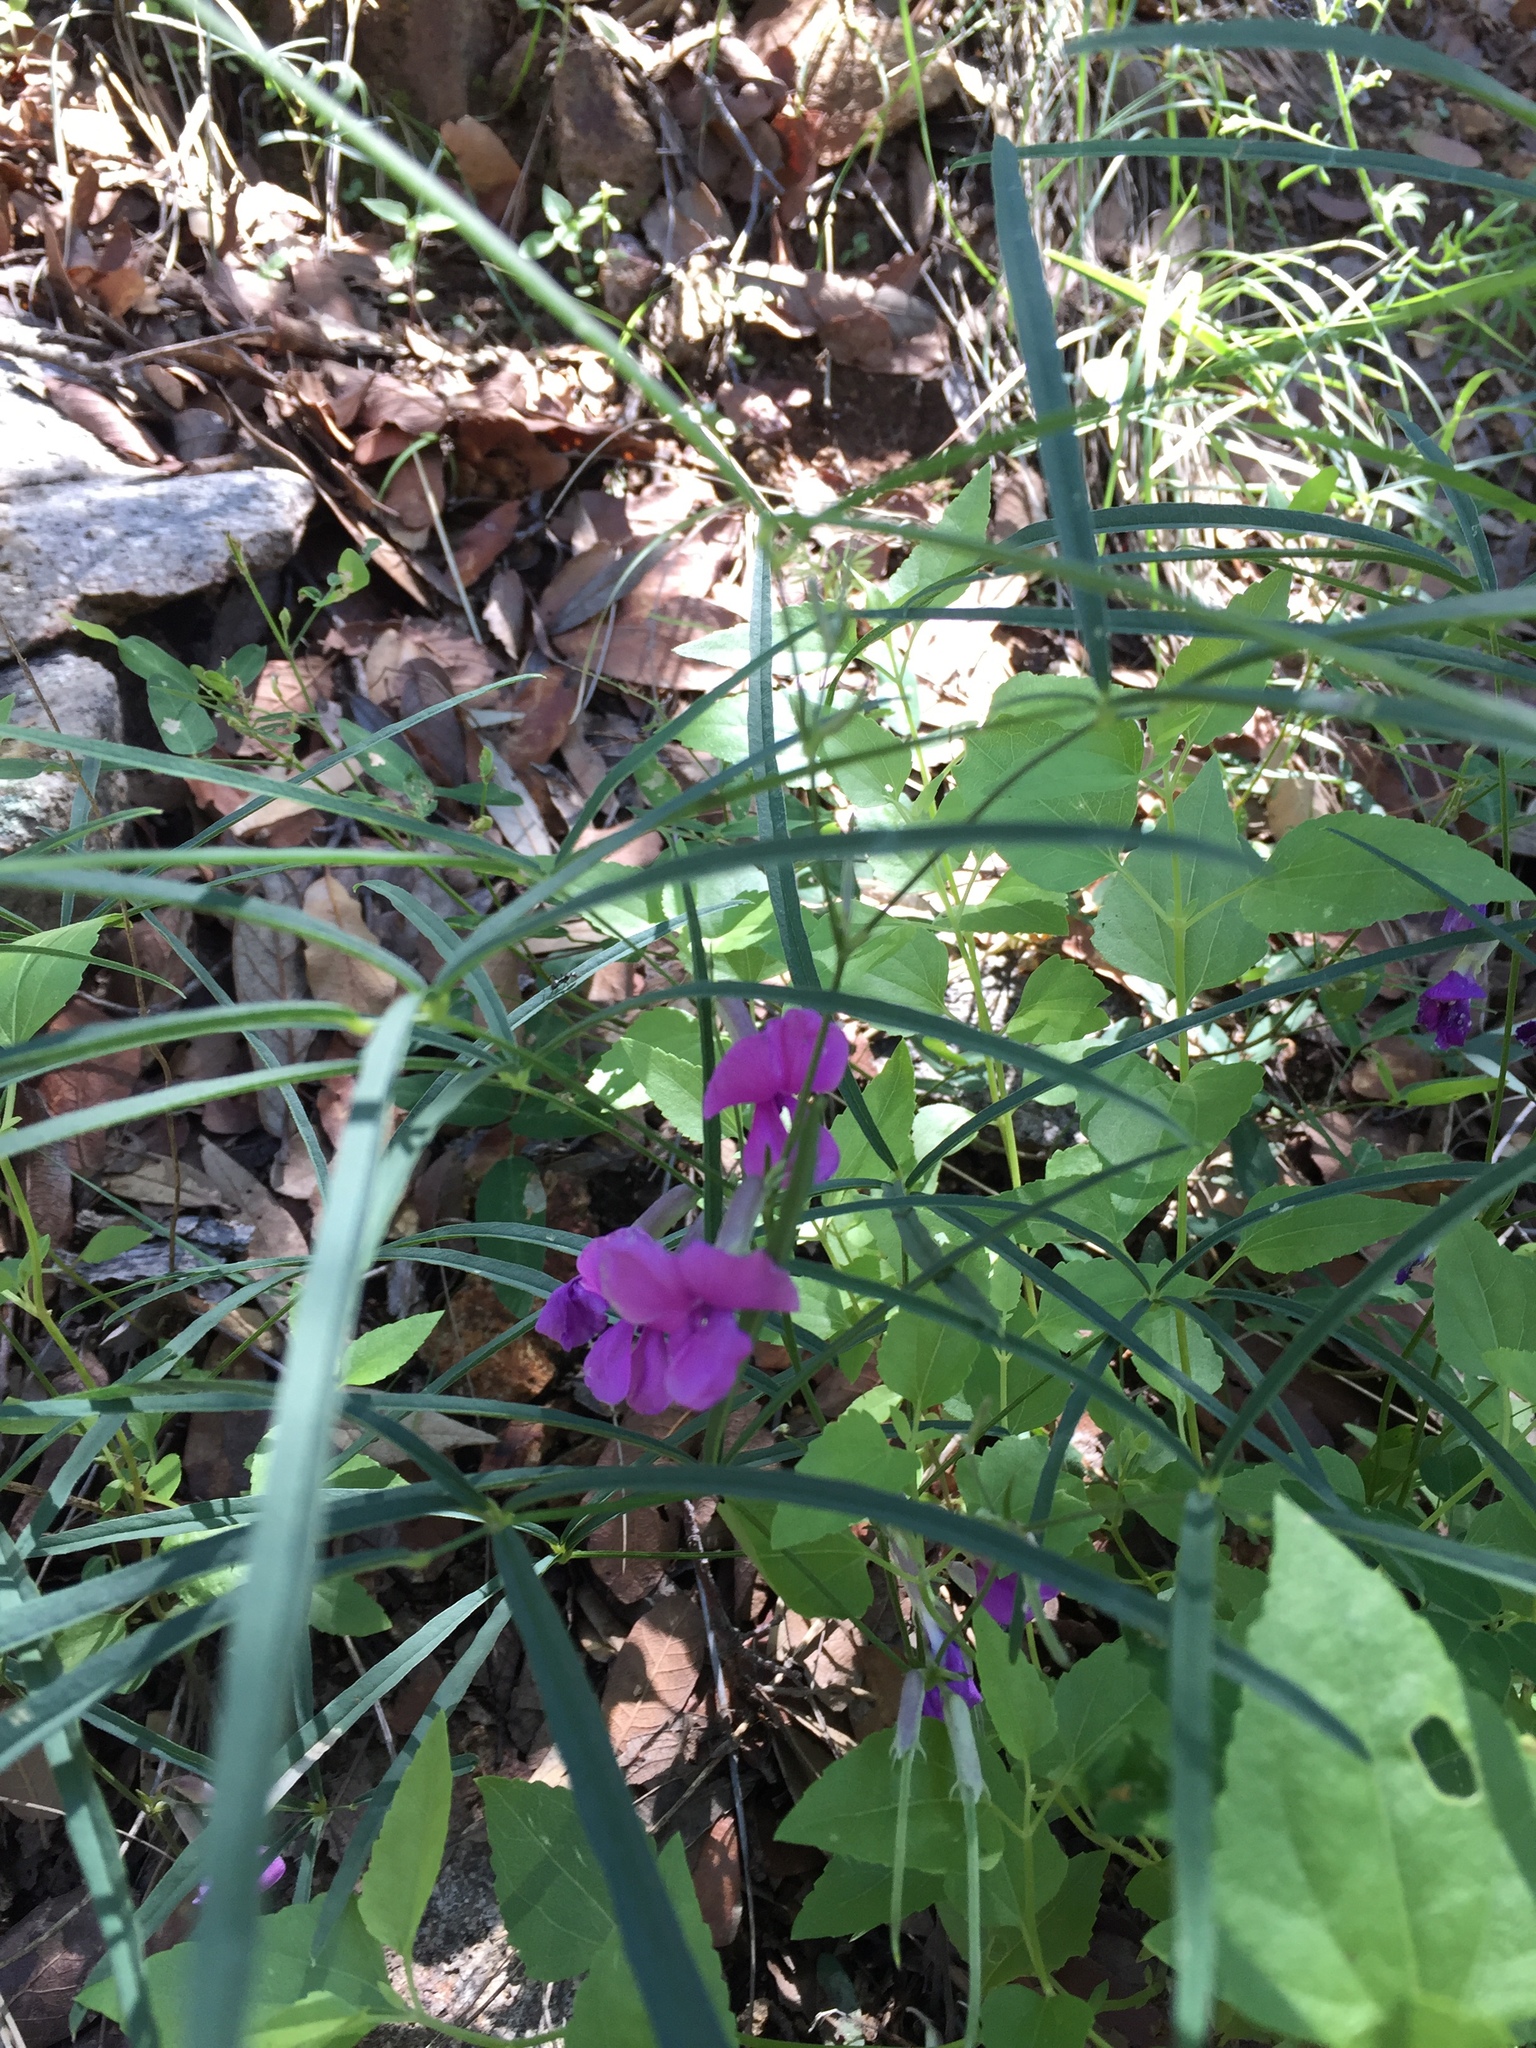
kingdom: Plantae
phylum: Tracheophyta
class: Magnoliopsida
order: Fabales
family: Fabaceae
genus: Cologania
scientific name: Cologania angustifolia
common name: Longleaf cologania
